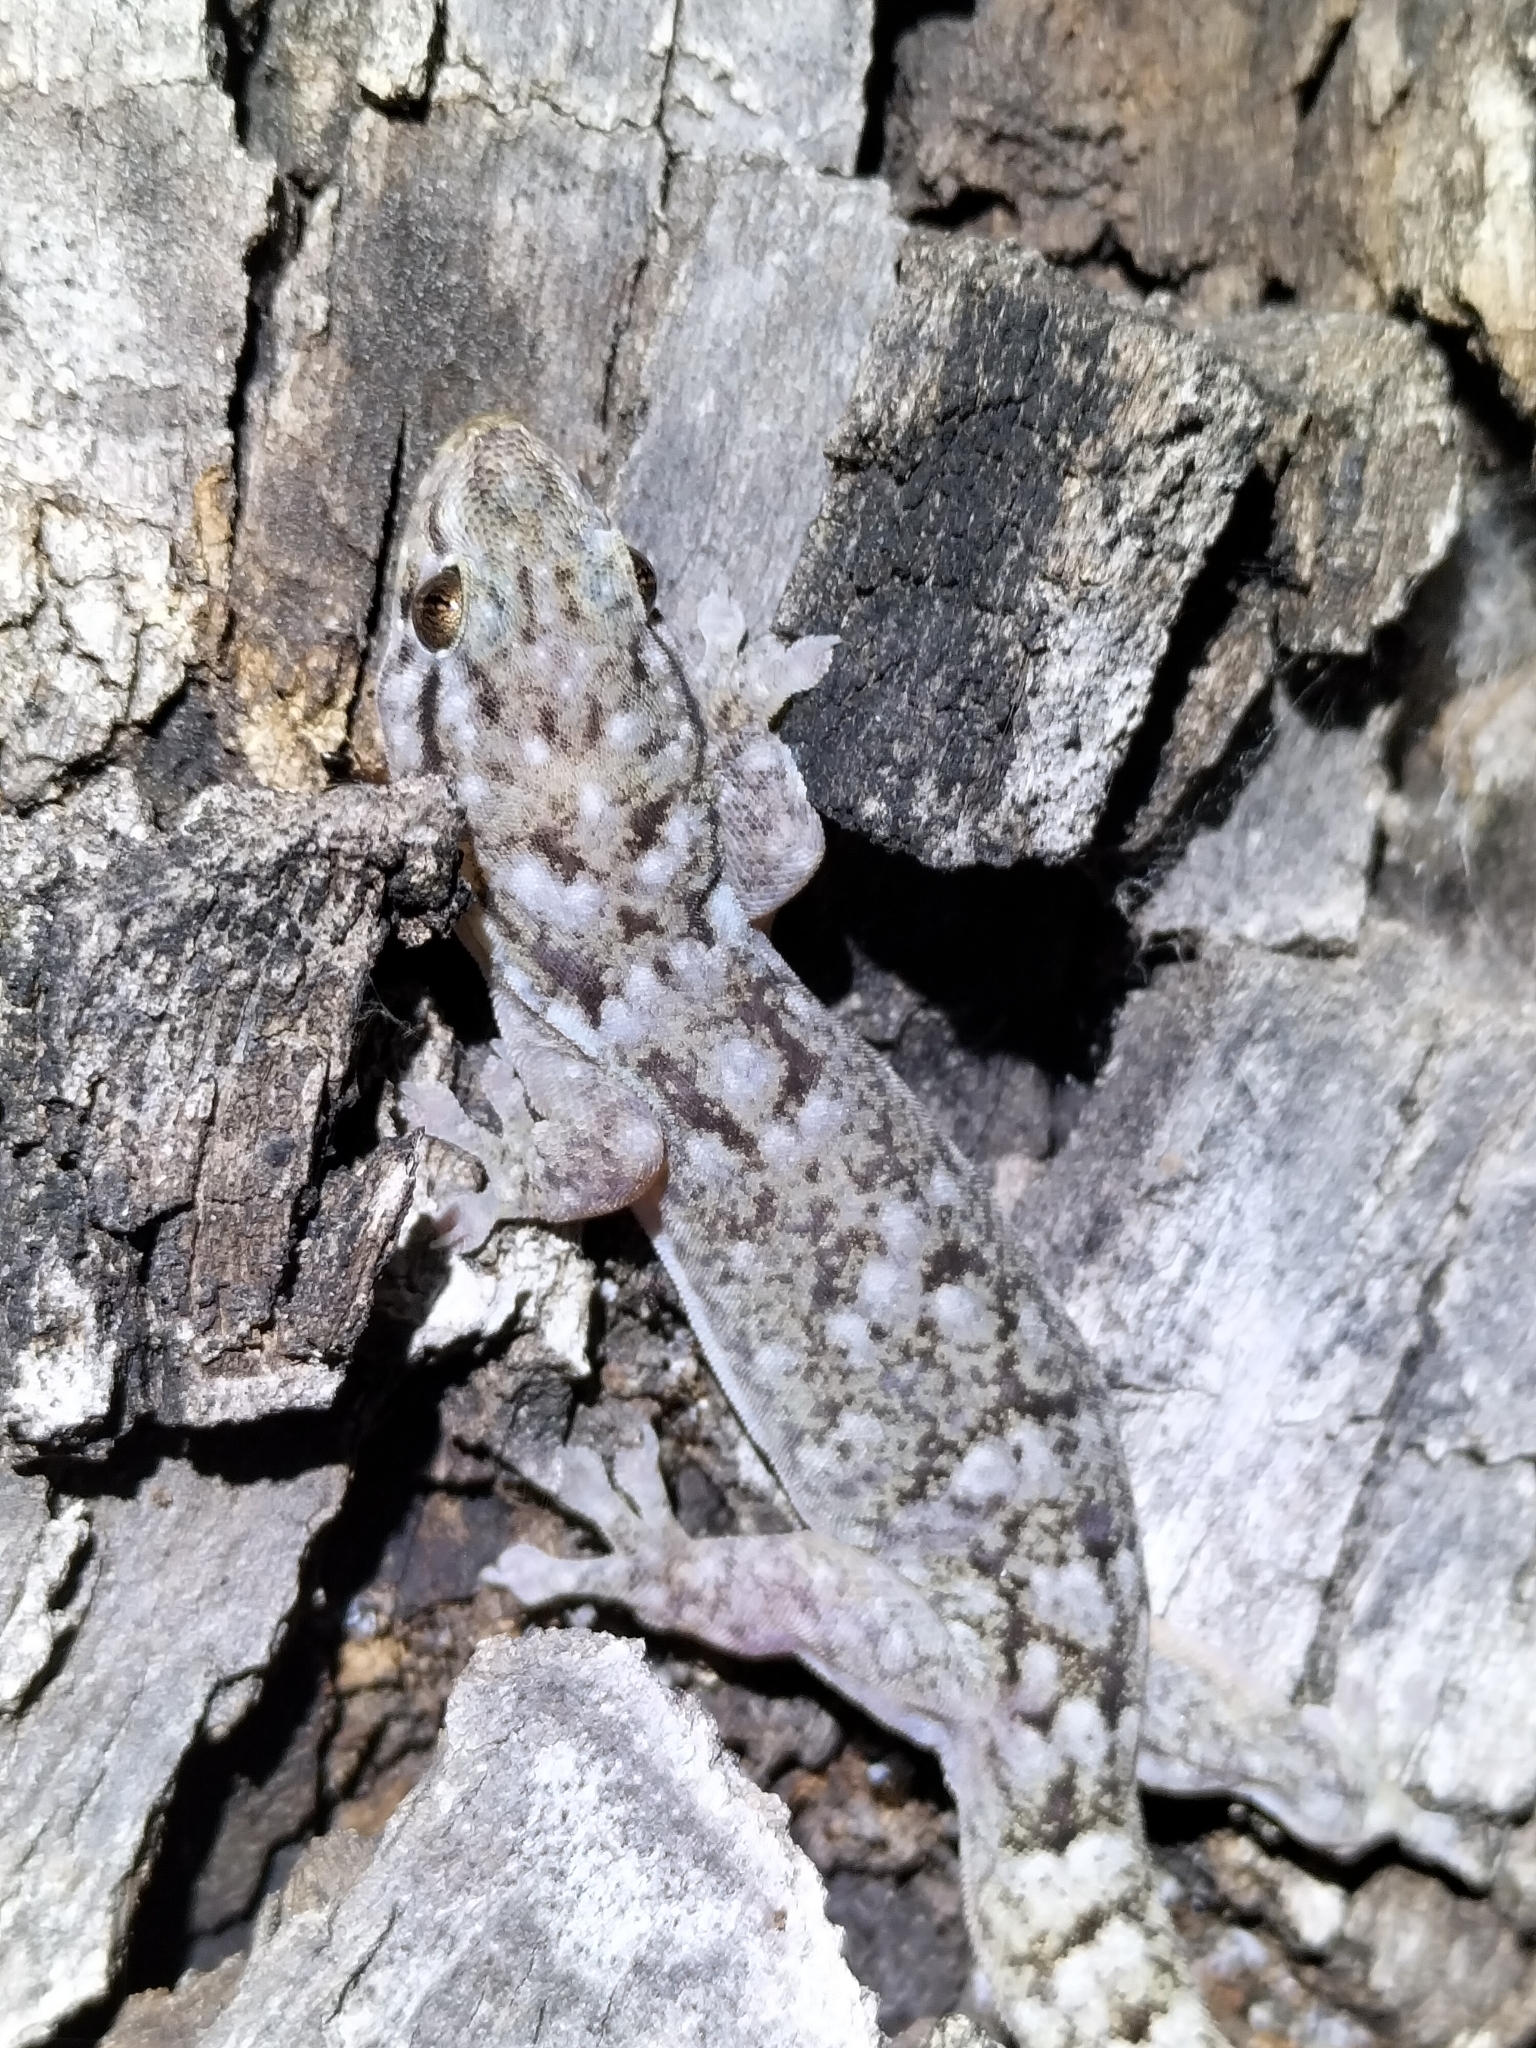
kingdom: Animalia
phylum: Chordata
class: Squamata
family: Gekkonidae
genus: Gehyra
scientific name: Gehyra dubia
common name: Dubious dtella
